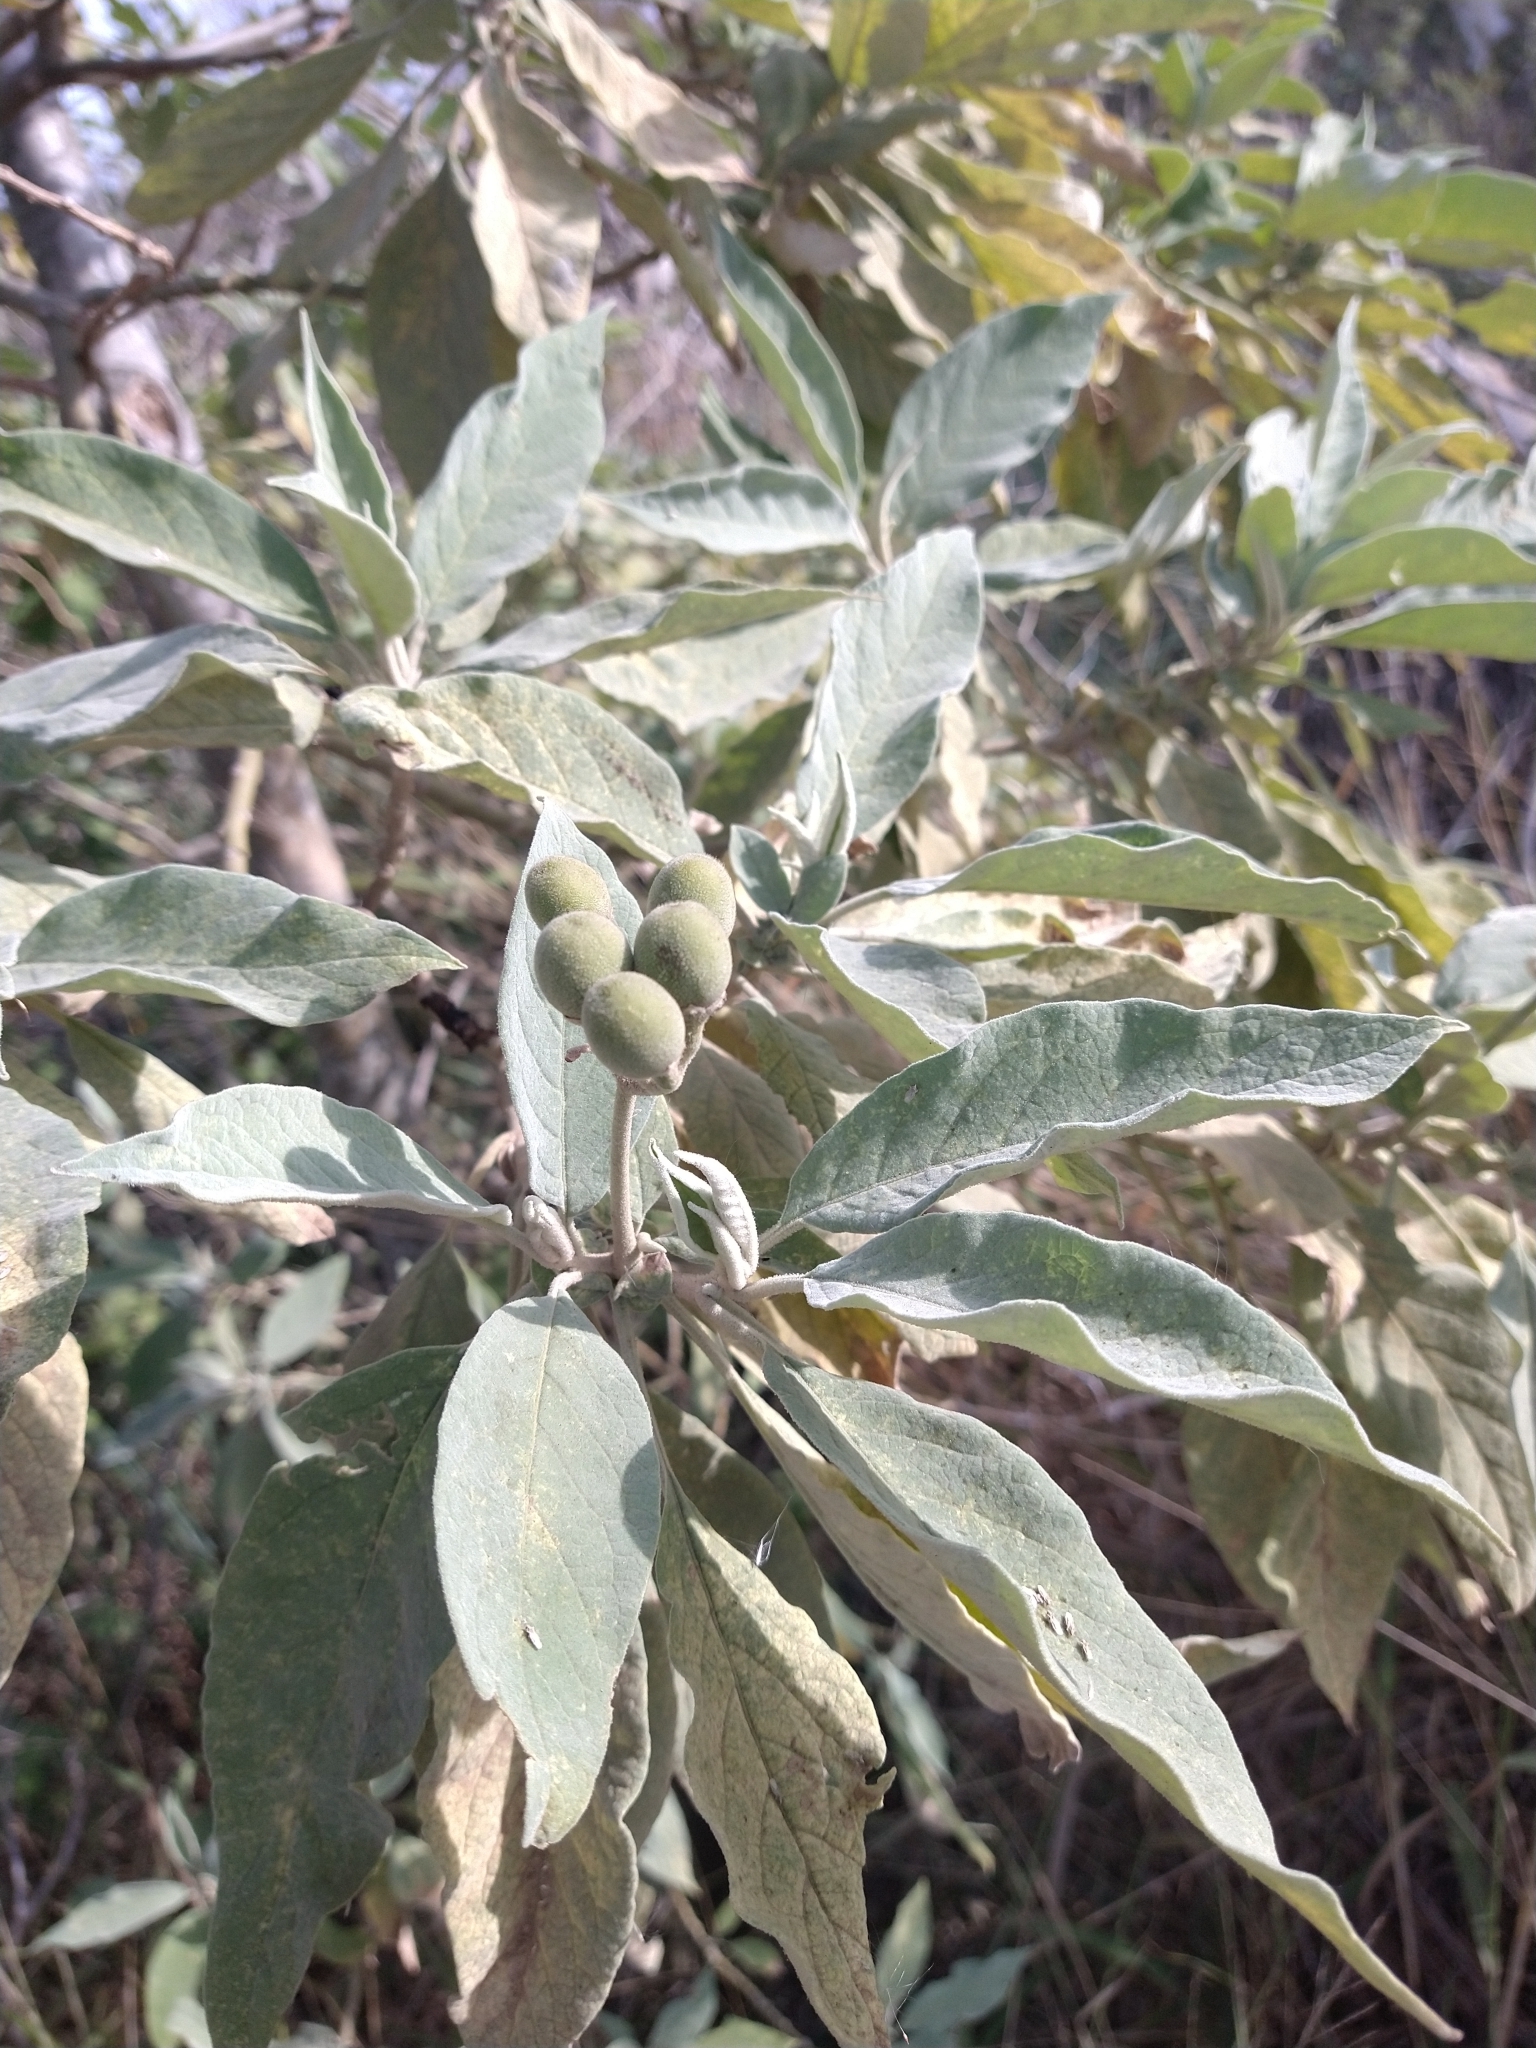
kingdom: Plantae
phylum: Tracheophyta
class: Magnoliopsida
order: Solanales
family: Solanaceae
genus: Solanum
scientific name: Solanum granulosoleprosum
